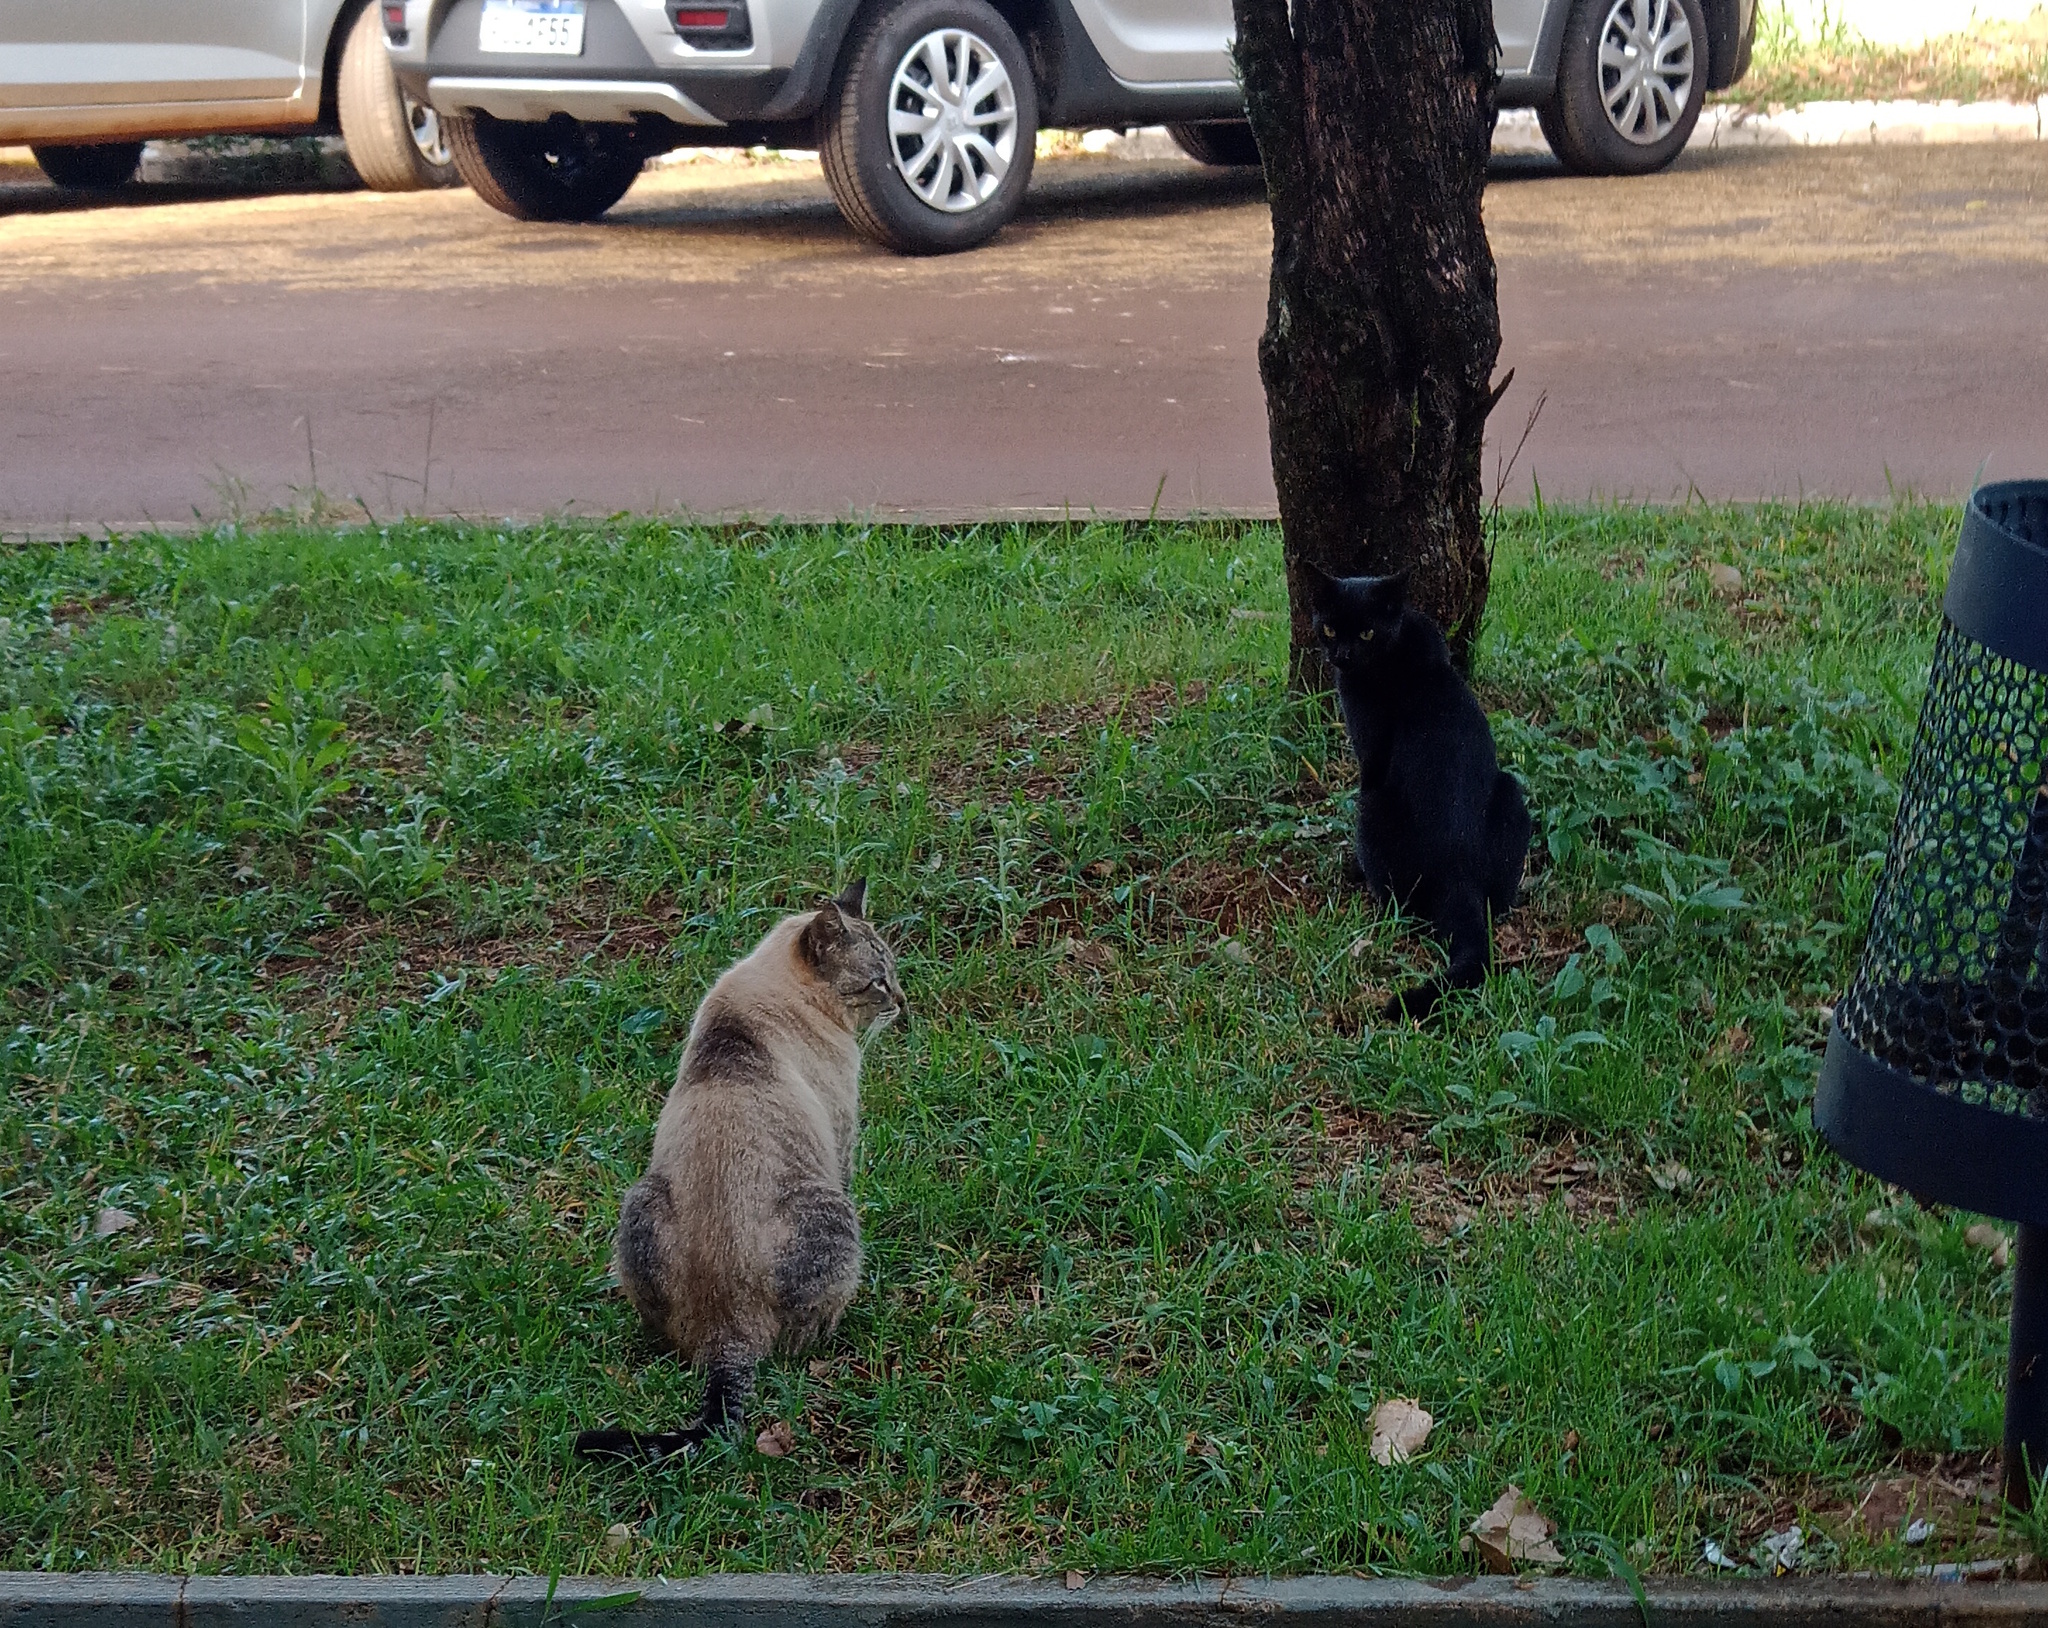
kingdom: Animalia
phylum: Chordata
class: Mammalia
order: Carnivora
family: Felidae
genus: Felis
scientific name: Felis catus
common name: Domestic cat
